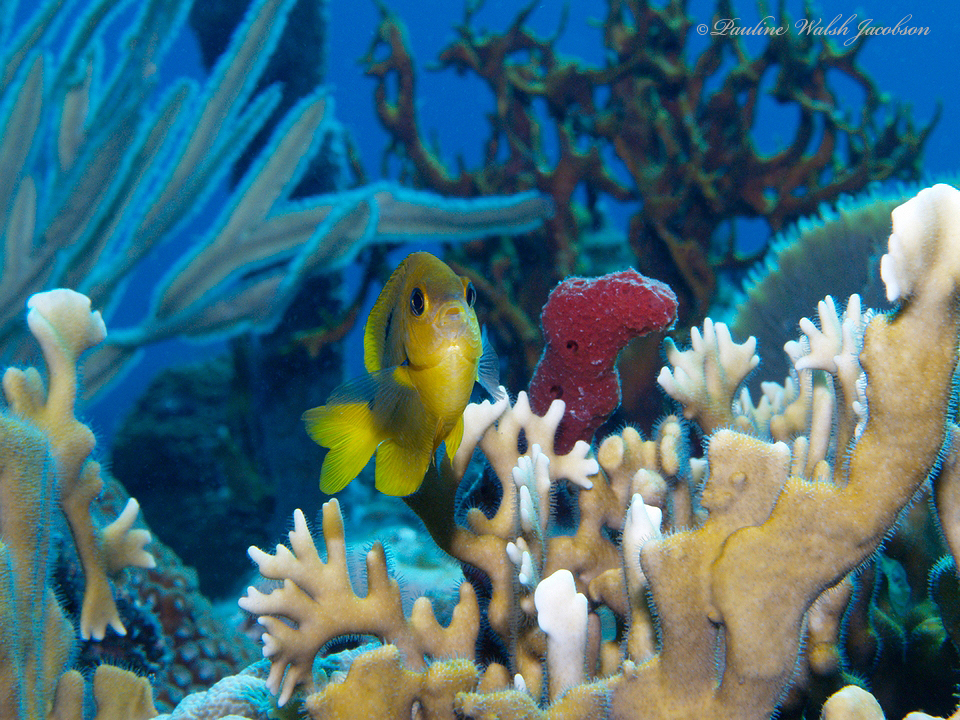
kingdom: Animalia
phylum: Chordata
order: Perciformes
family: Pomacentridae
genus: Stegastes
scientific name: Stegastes planifrons
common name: Threespot damselfish
